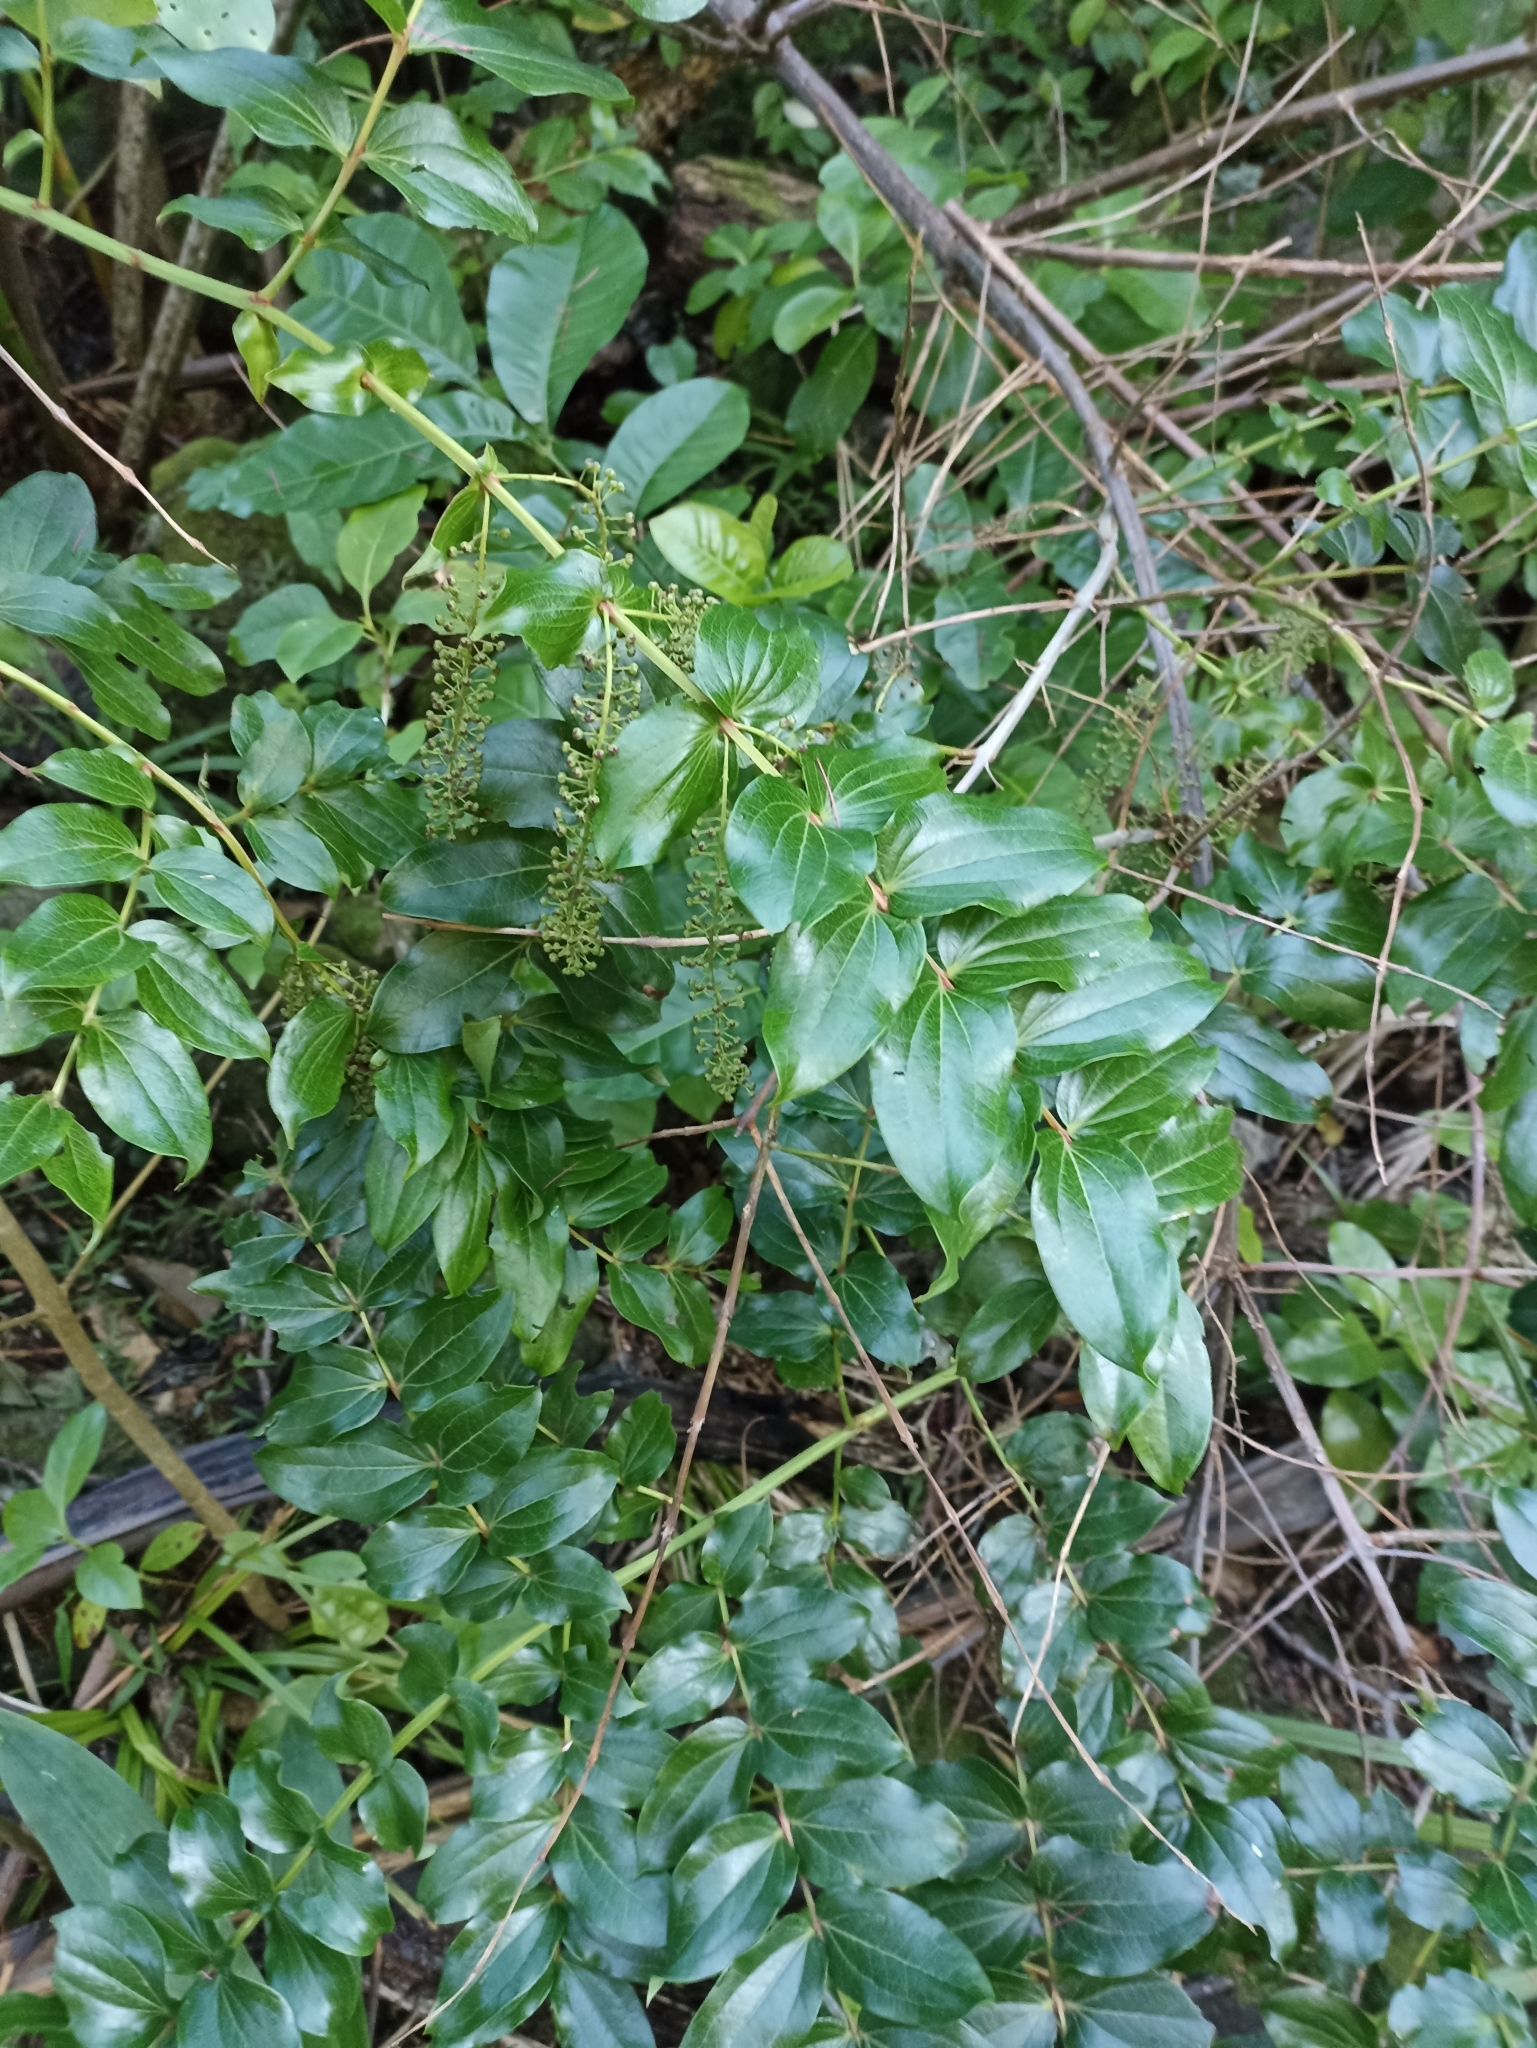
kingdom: Plantae
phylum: Tracheophyta
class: Magnoliopsida
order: Cucurbitales
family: Coriariaceae
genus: Coriaria
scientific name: Coriaria arborea
